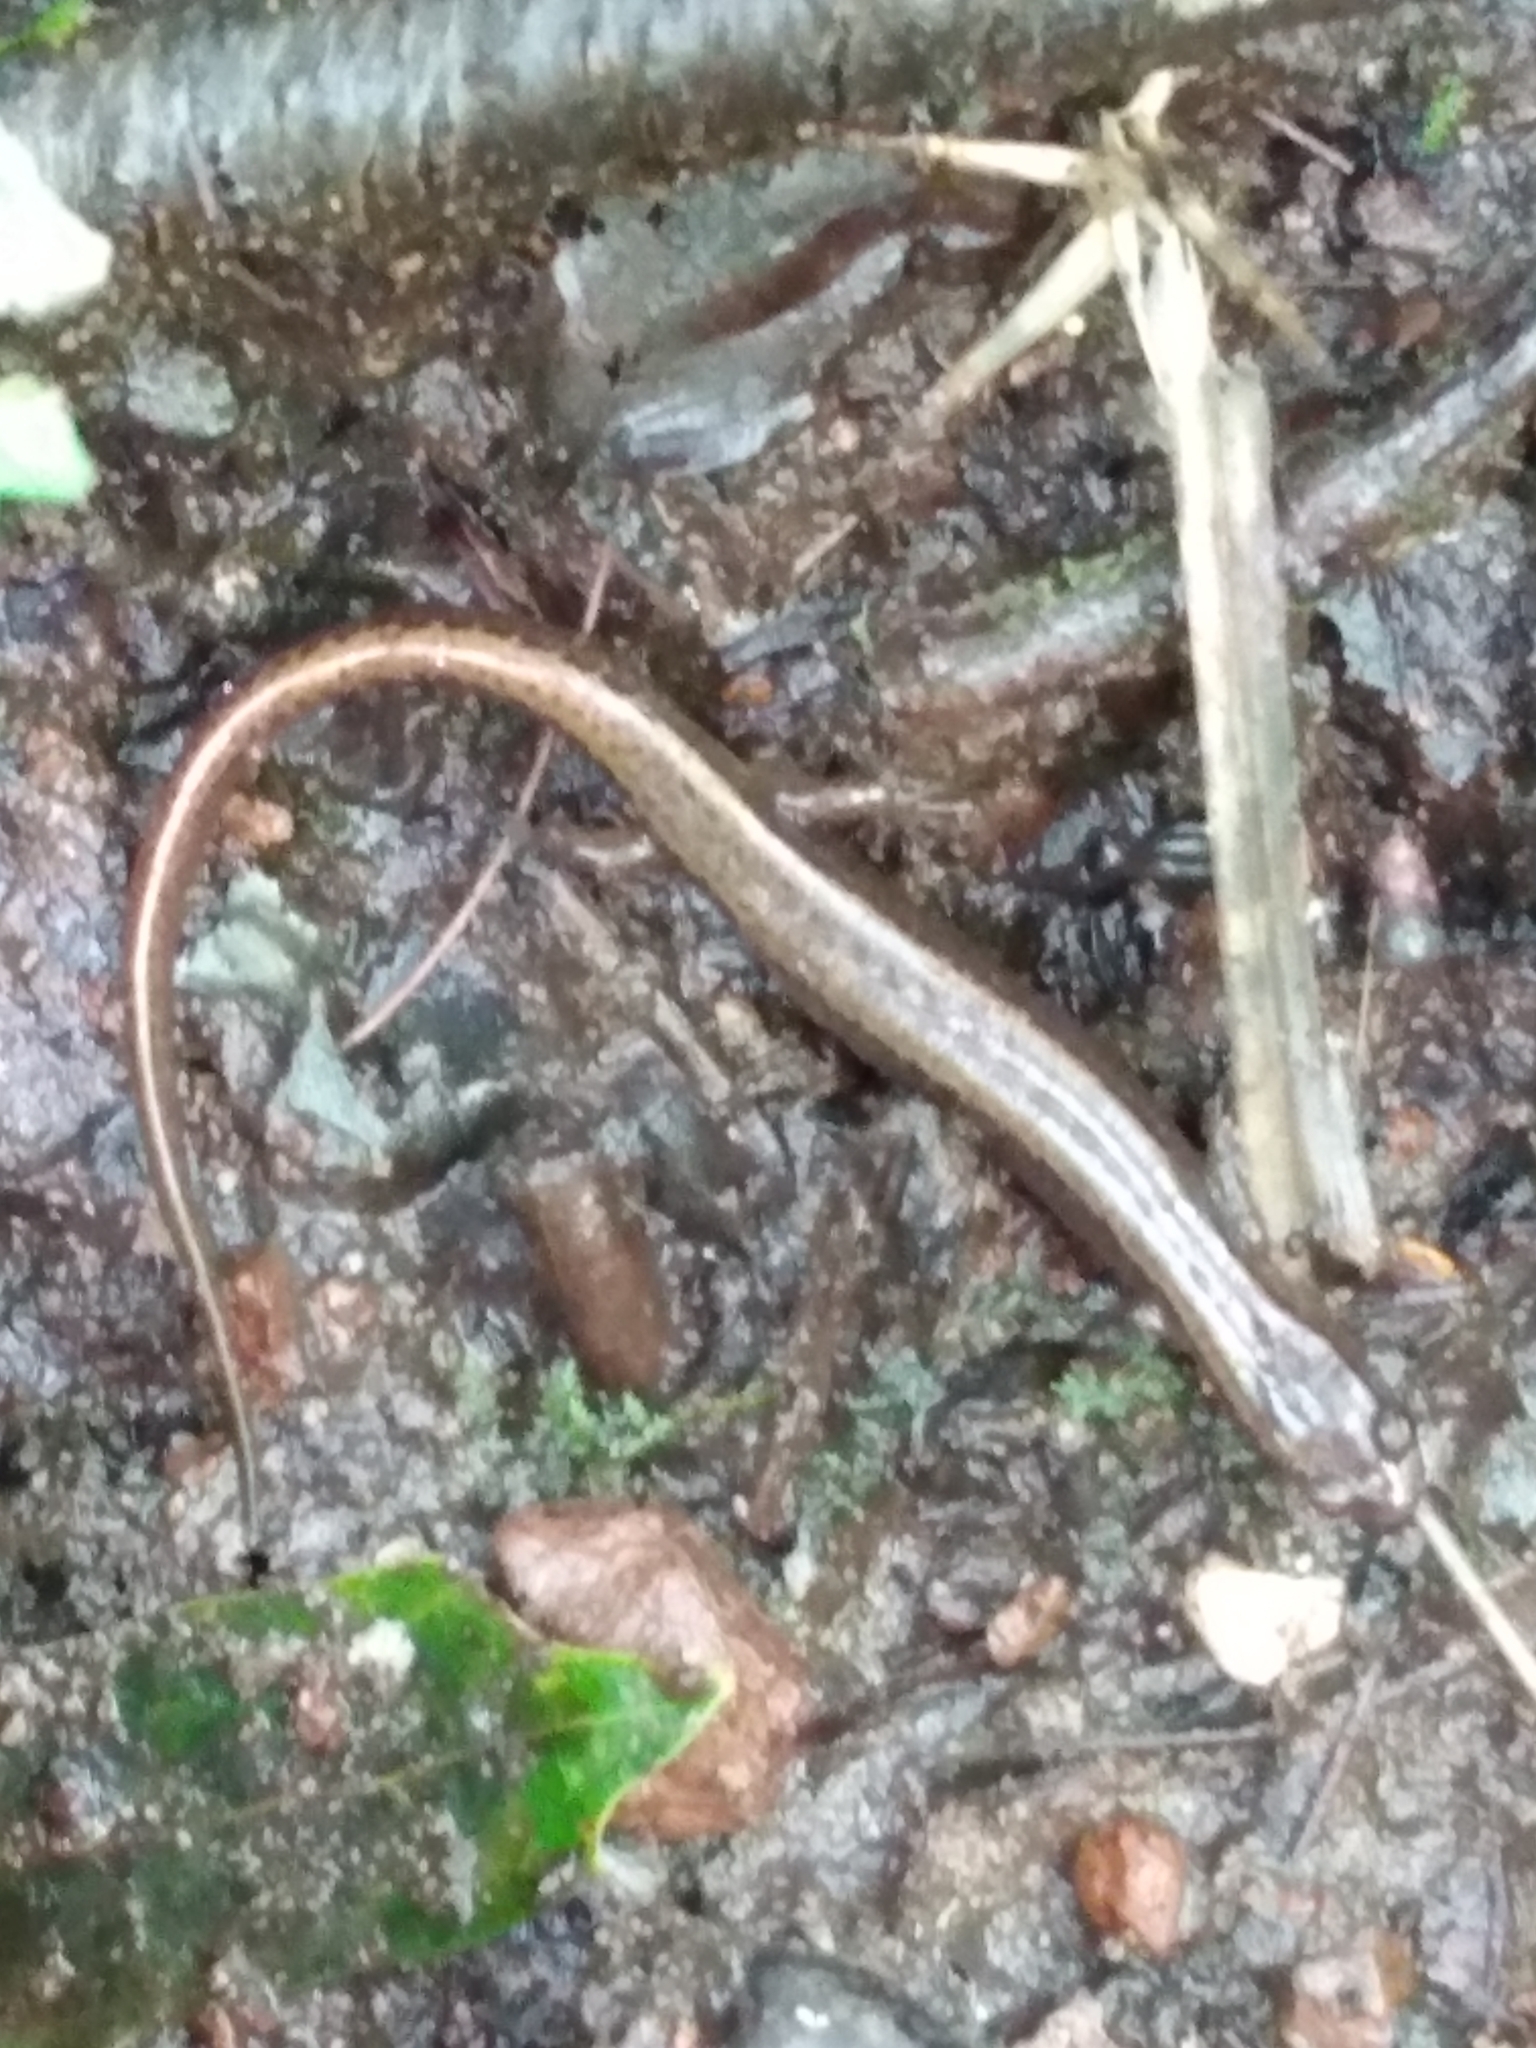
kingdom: Animalia
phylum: Chordata
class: Amphibia
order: Caudata
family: Plethodontidae
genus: Eurycea
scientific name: Eurycea bislineata
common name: Northern two-lined salamander
